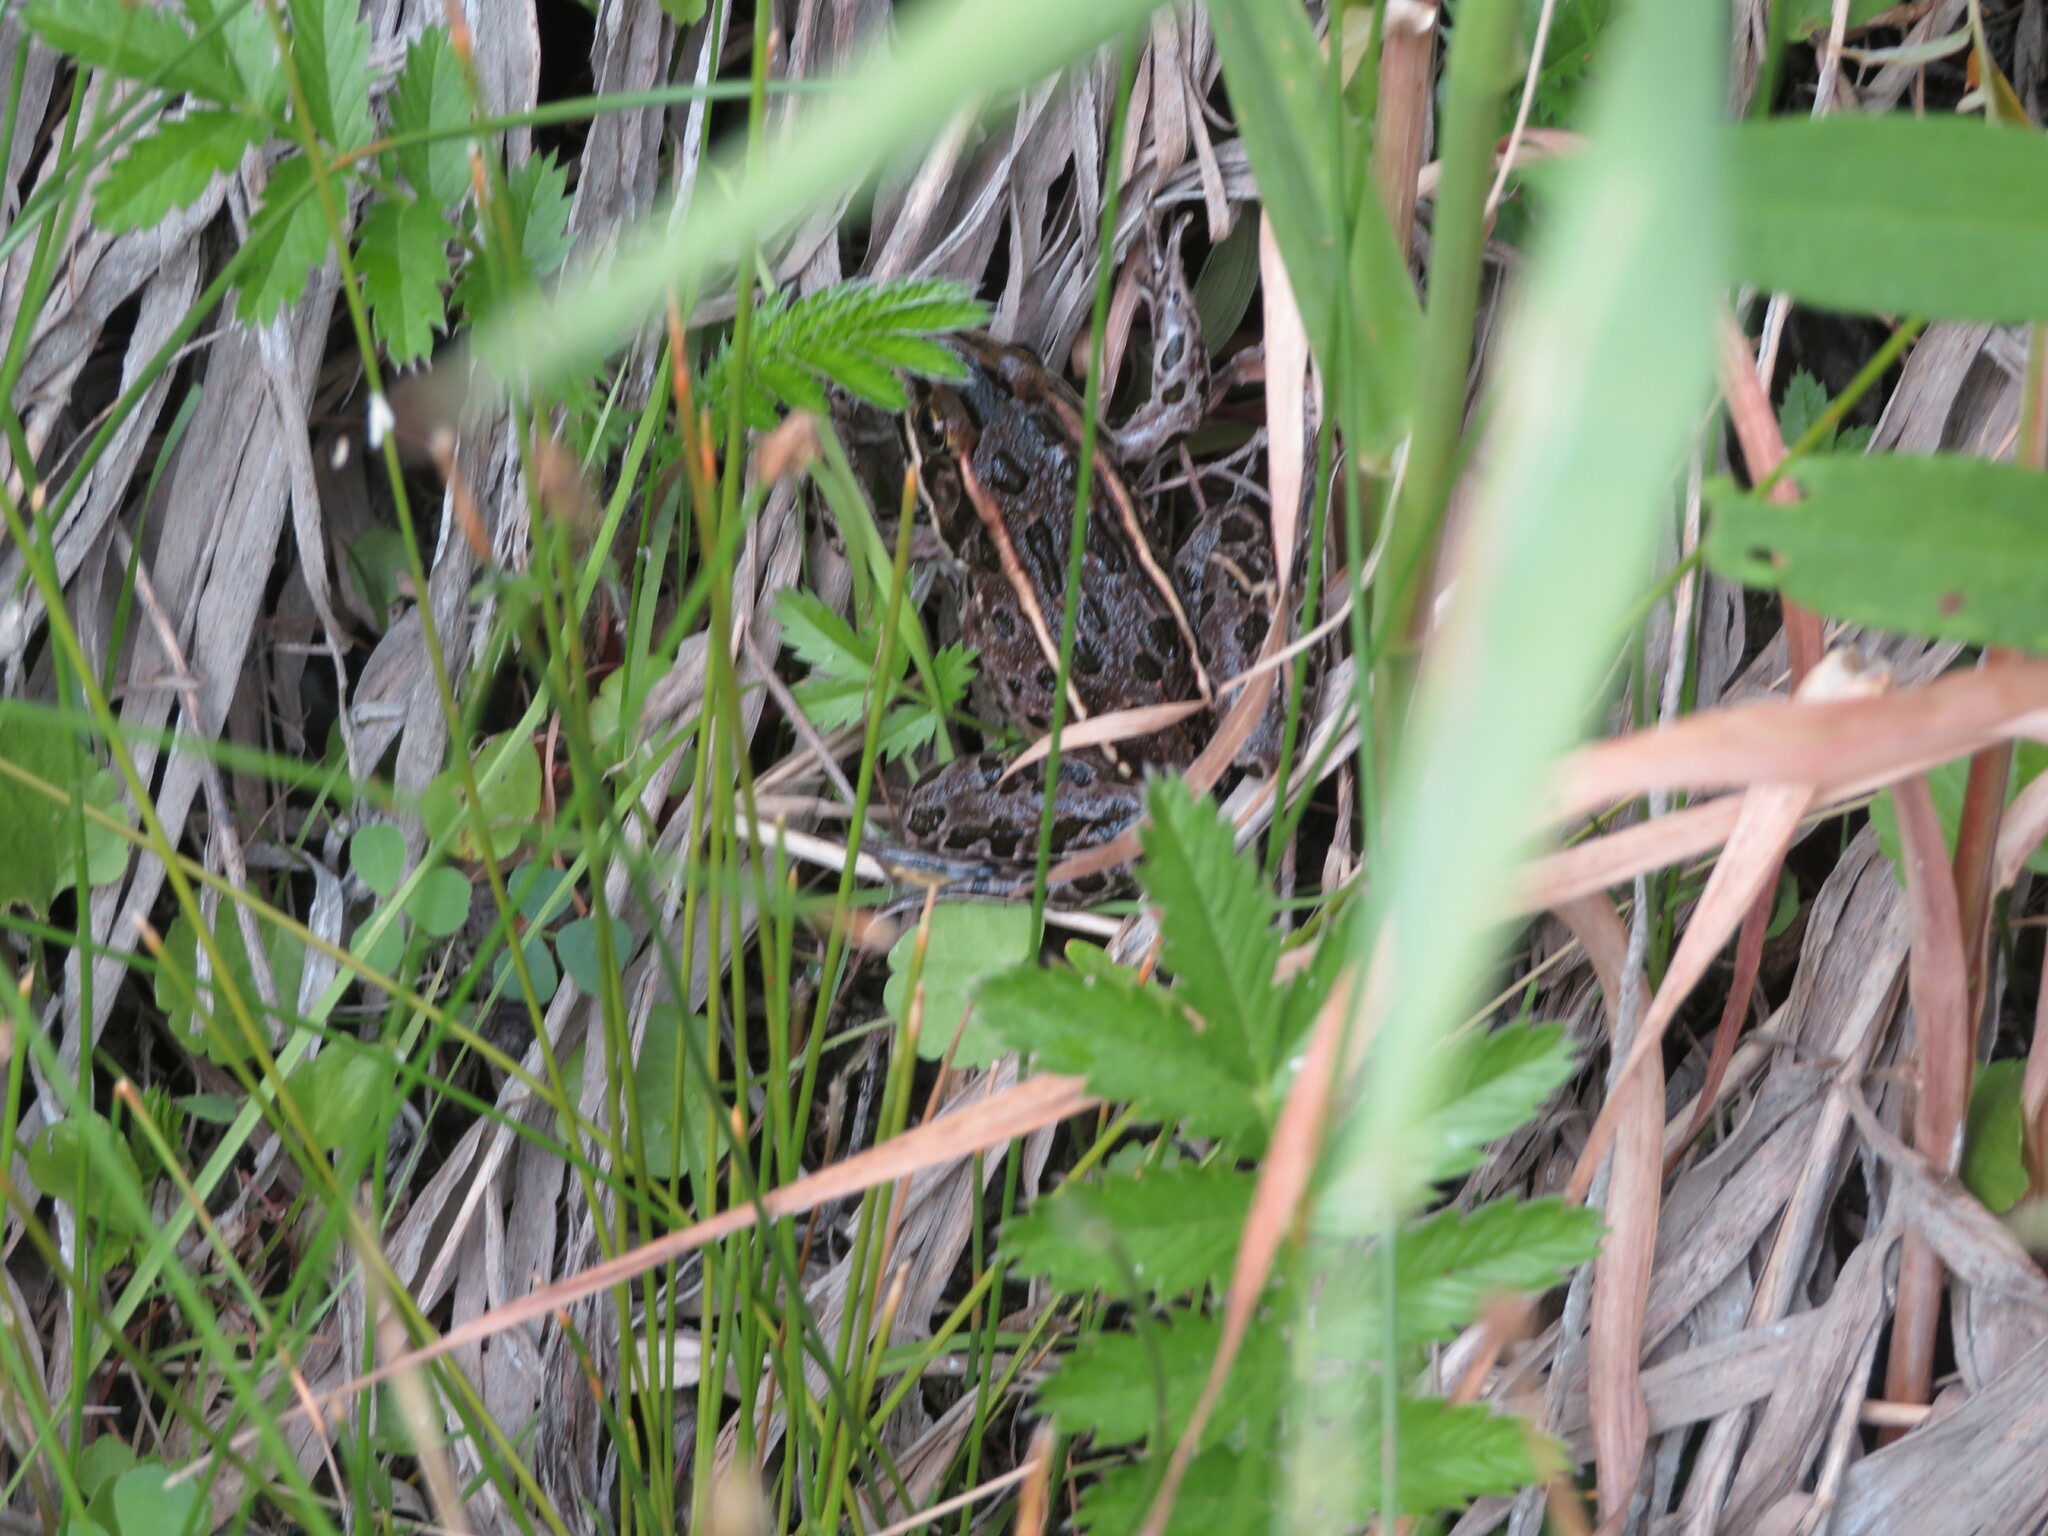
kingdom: Animalia
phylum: Chordata
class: Amphibia
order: Anura
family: Ranidae
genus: Lithobates
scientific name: Lithobates pipiens
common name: Northern leopard frog
